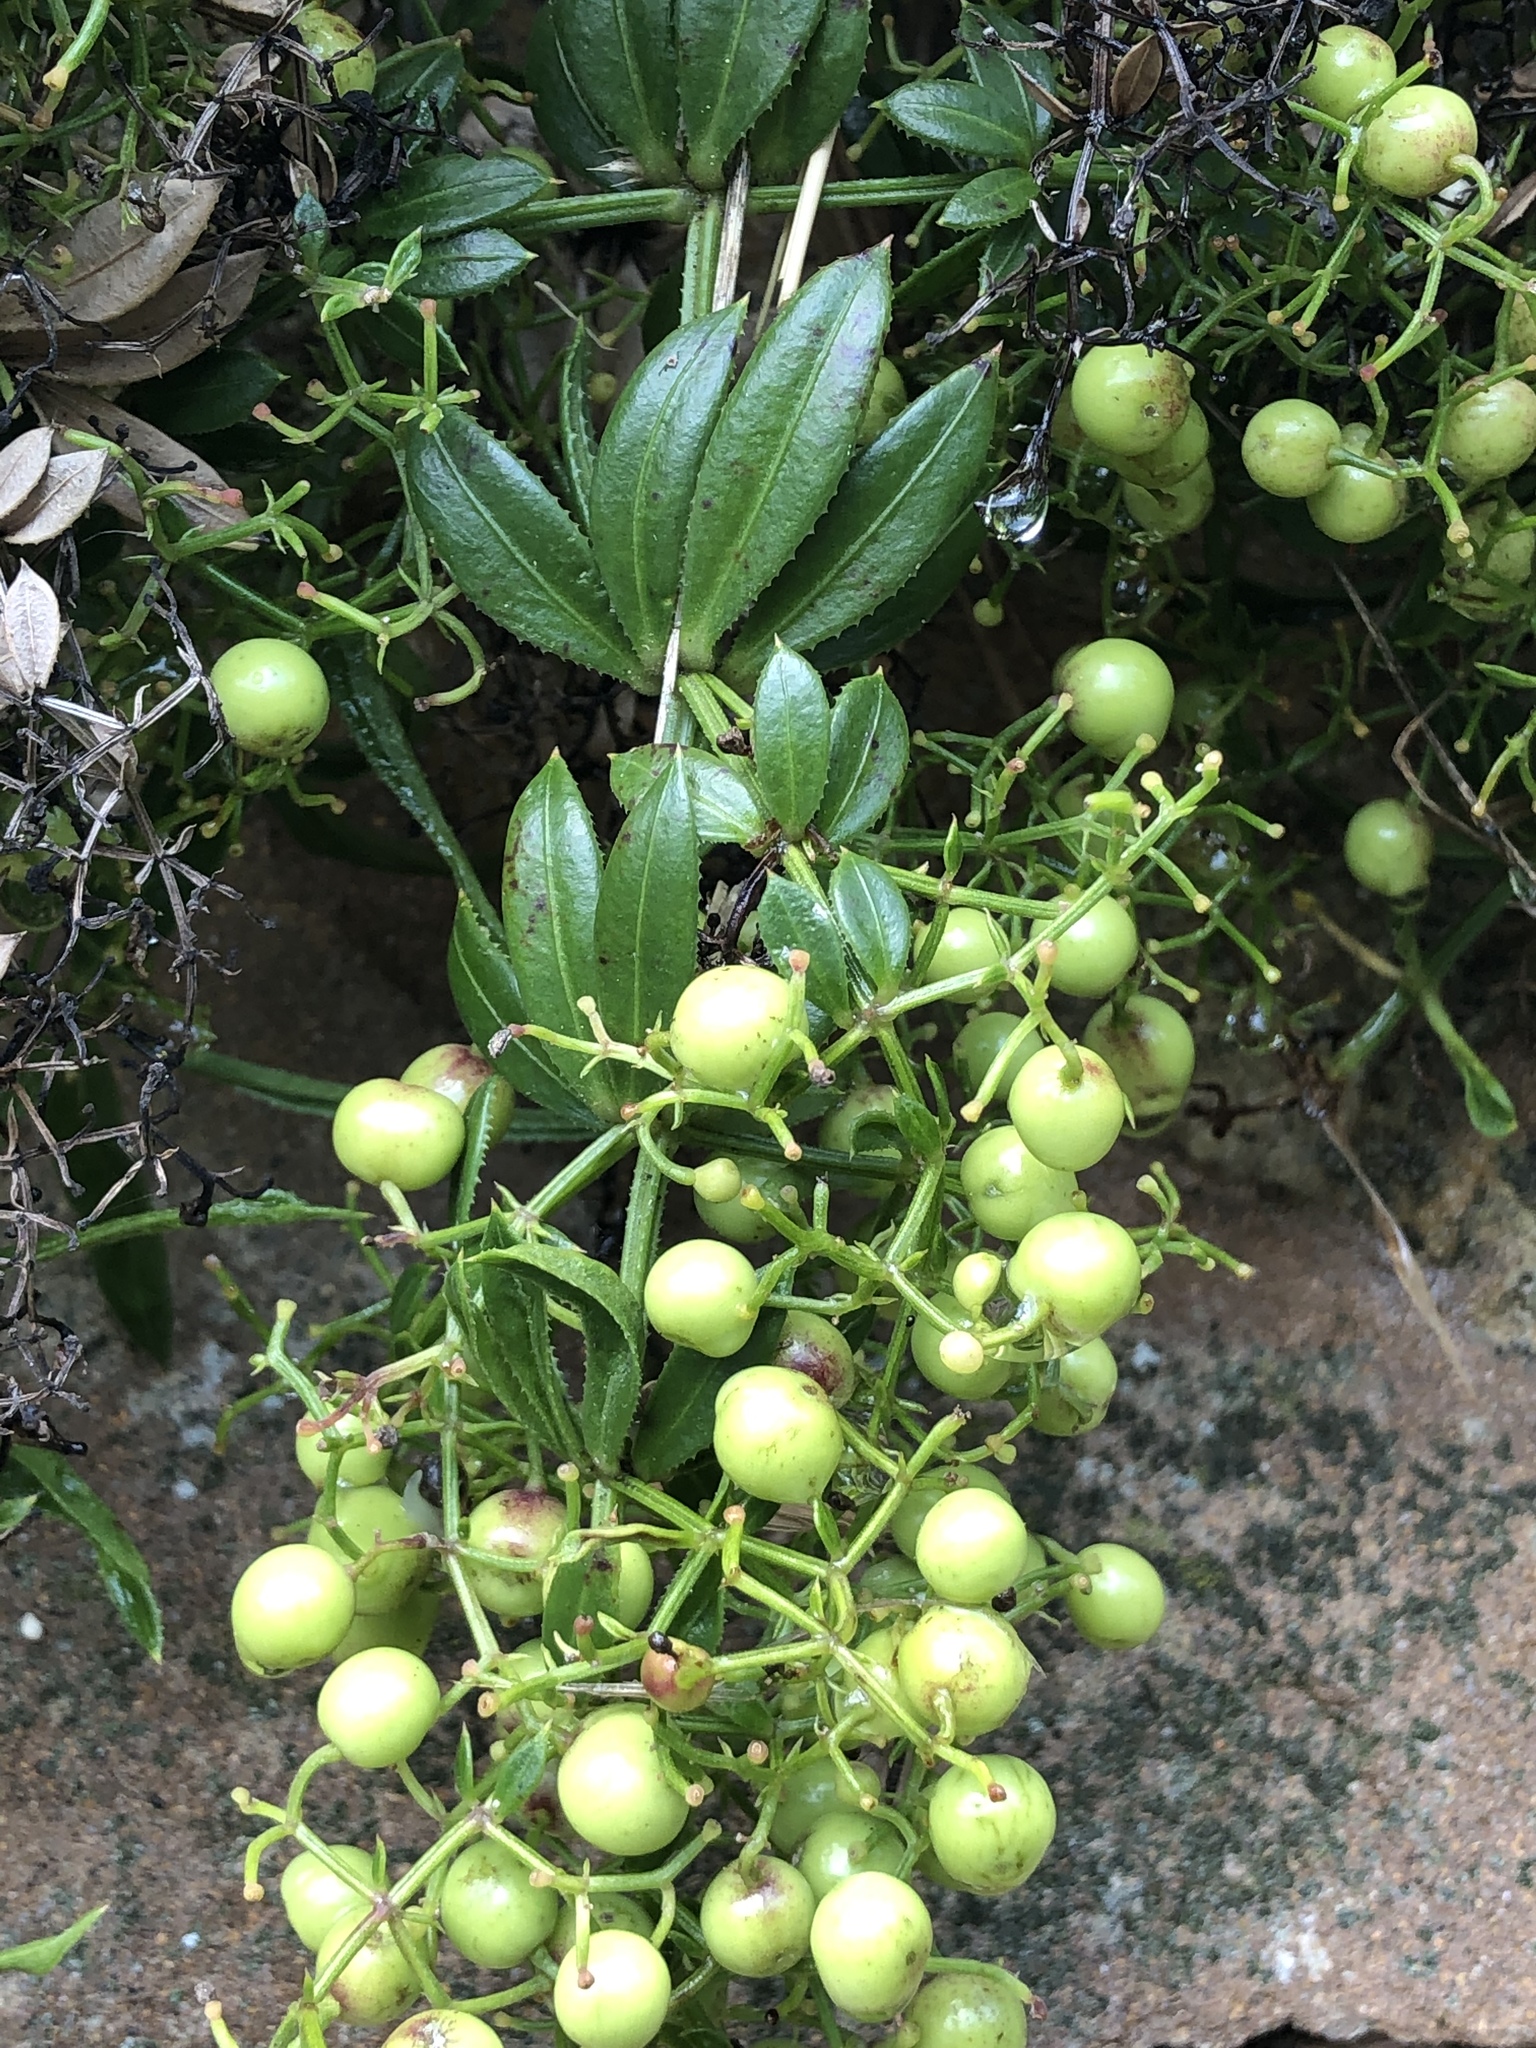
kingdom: Plantae
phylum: Tracheophyta
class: Magnoliopsida
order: Gentianales
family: Rubiaceae
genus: Rubia
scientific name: Rubia peregrina
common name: Wild madder
